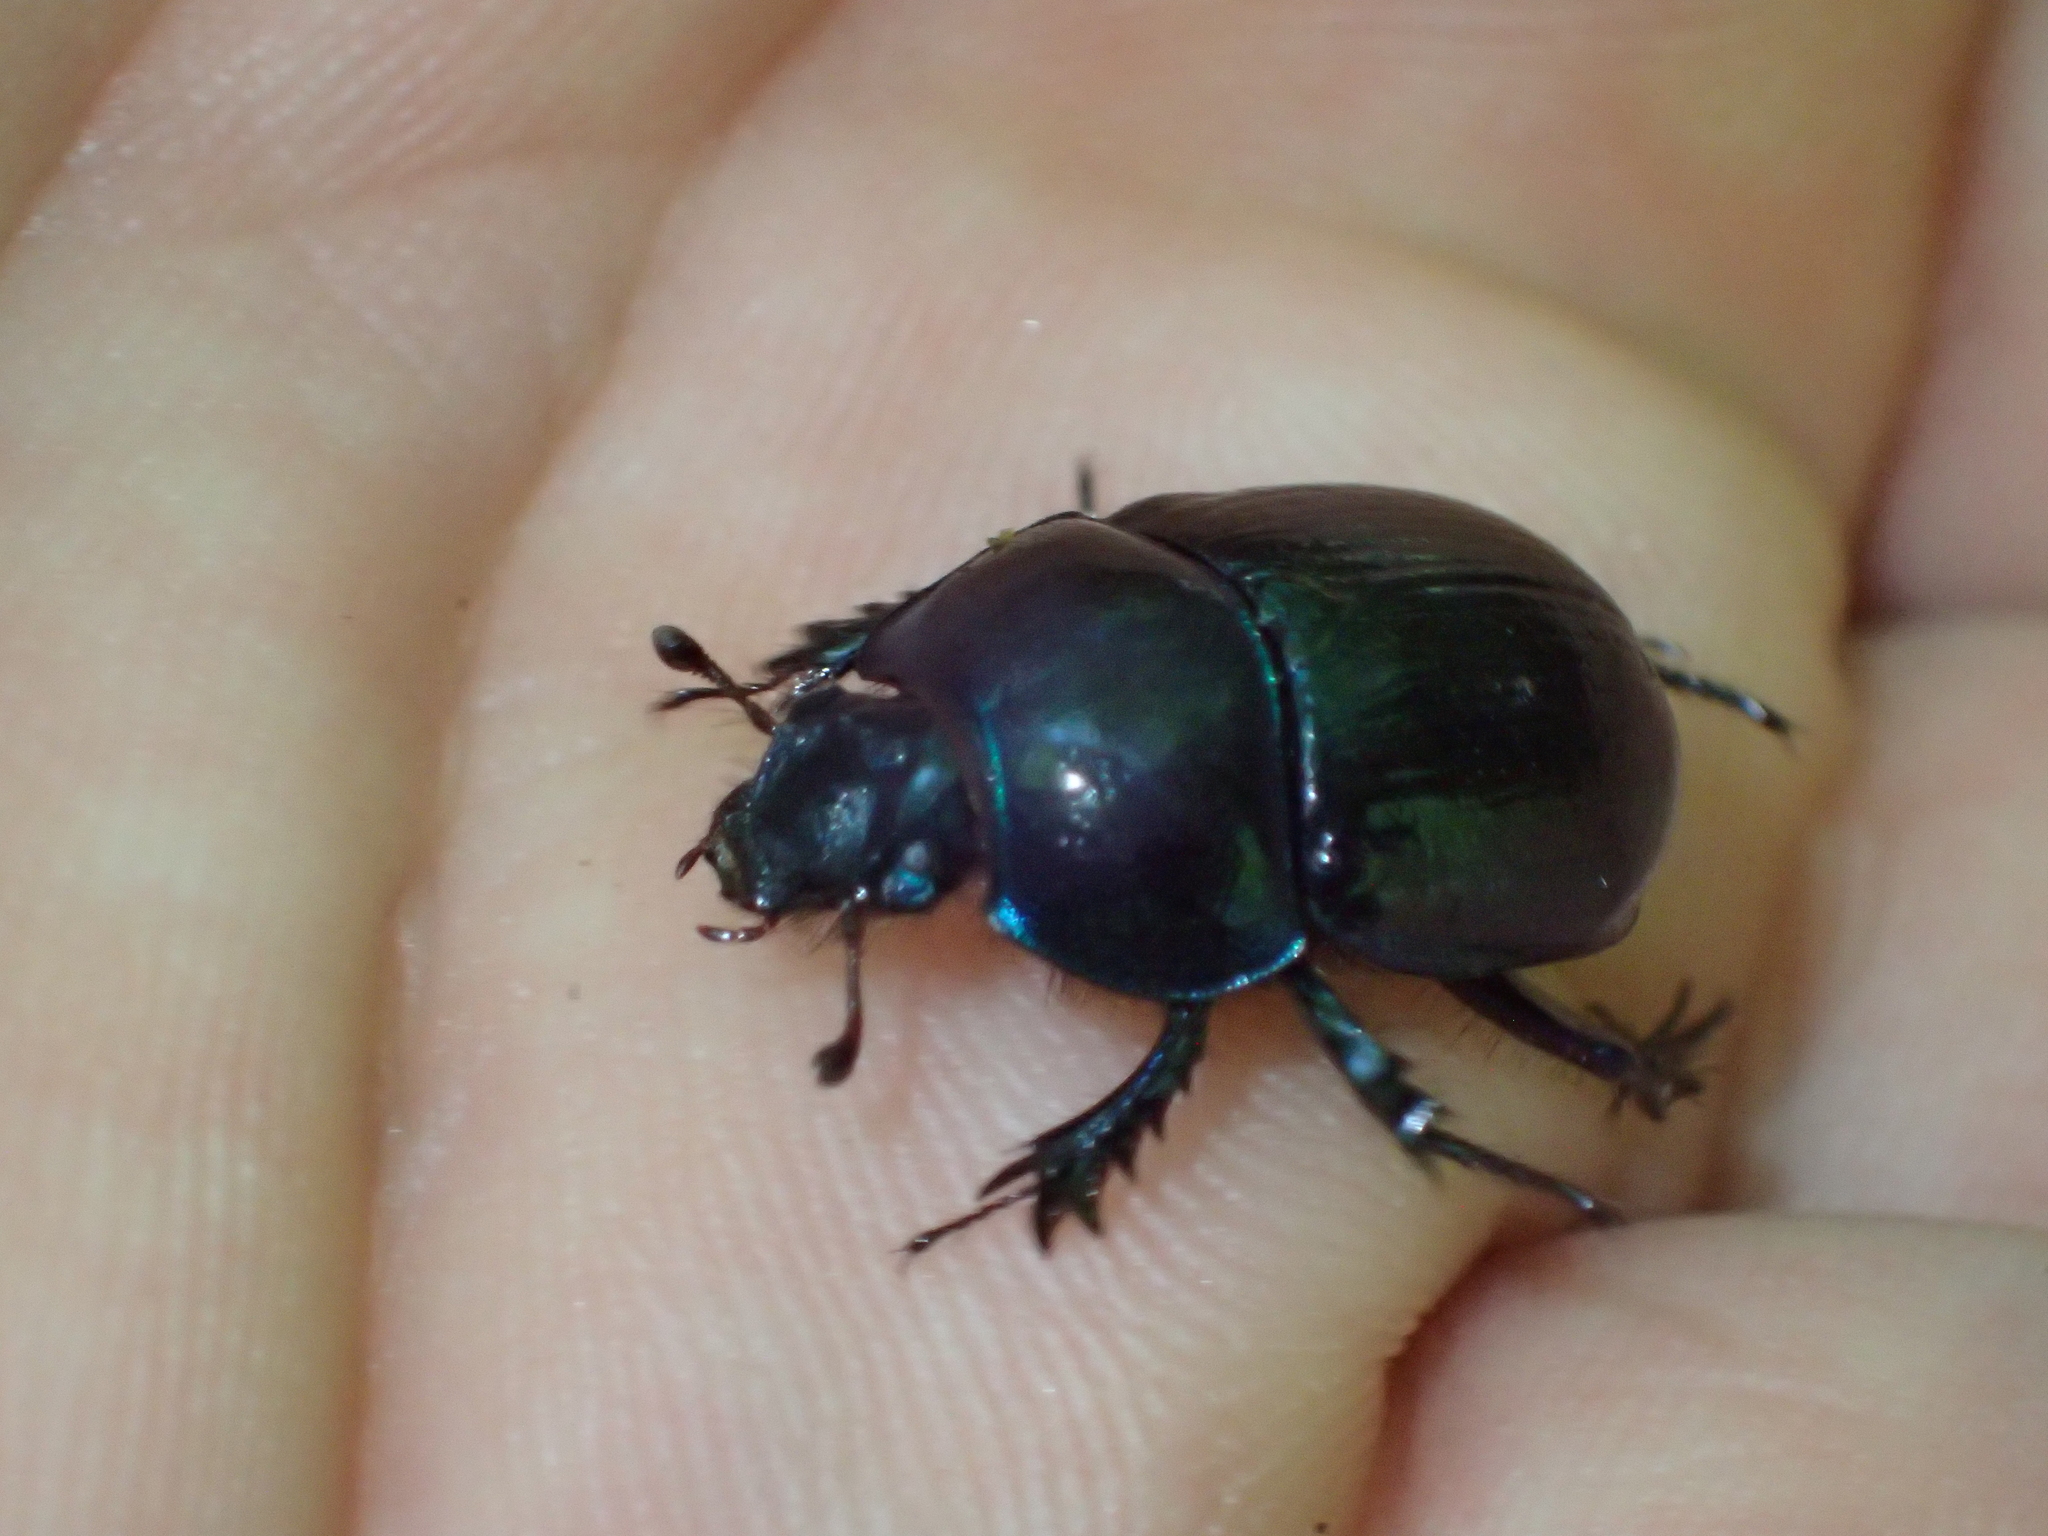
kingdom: Animalia
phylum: Arthropoda
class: Insecta
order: Coleoptera
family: Geotrupidae
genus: Anoplotrupes
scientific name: Anoplotrupes stercorosus
